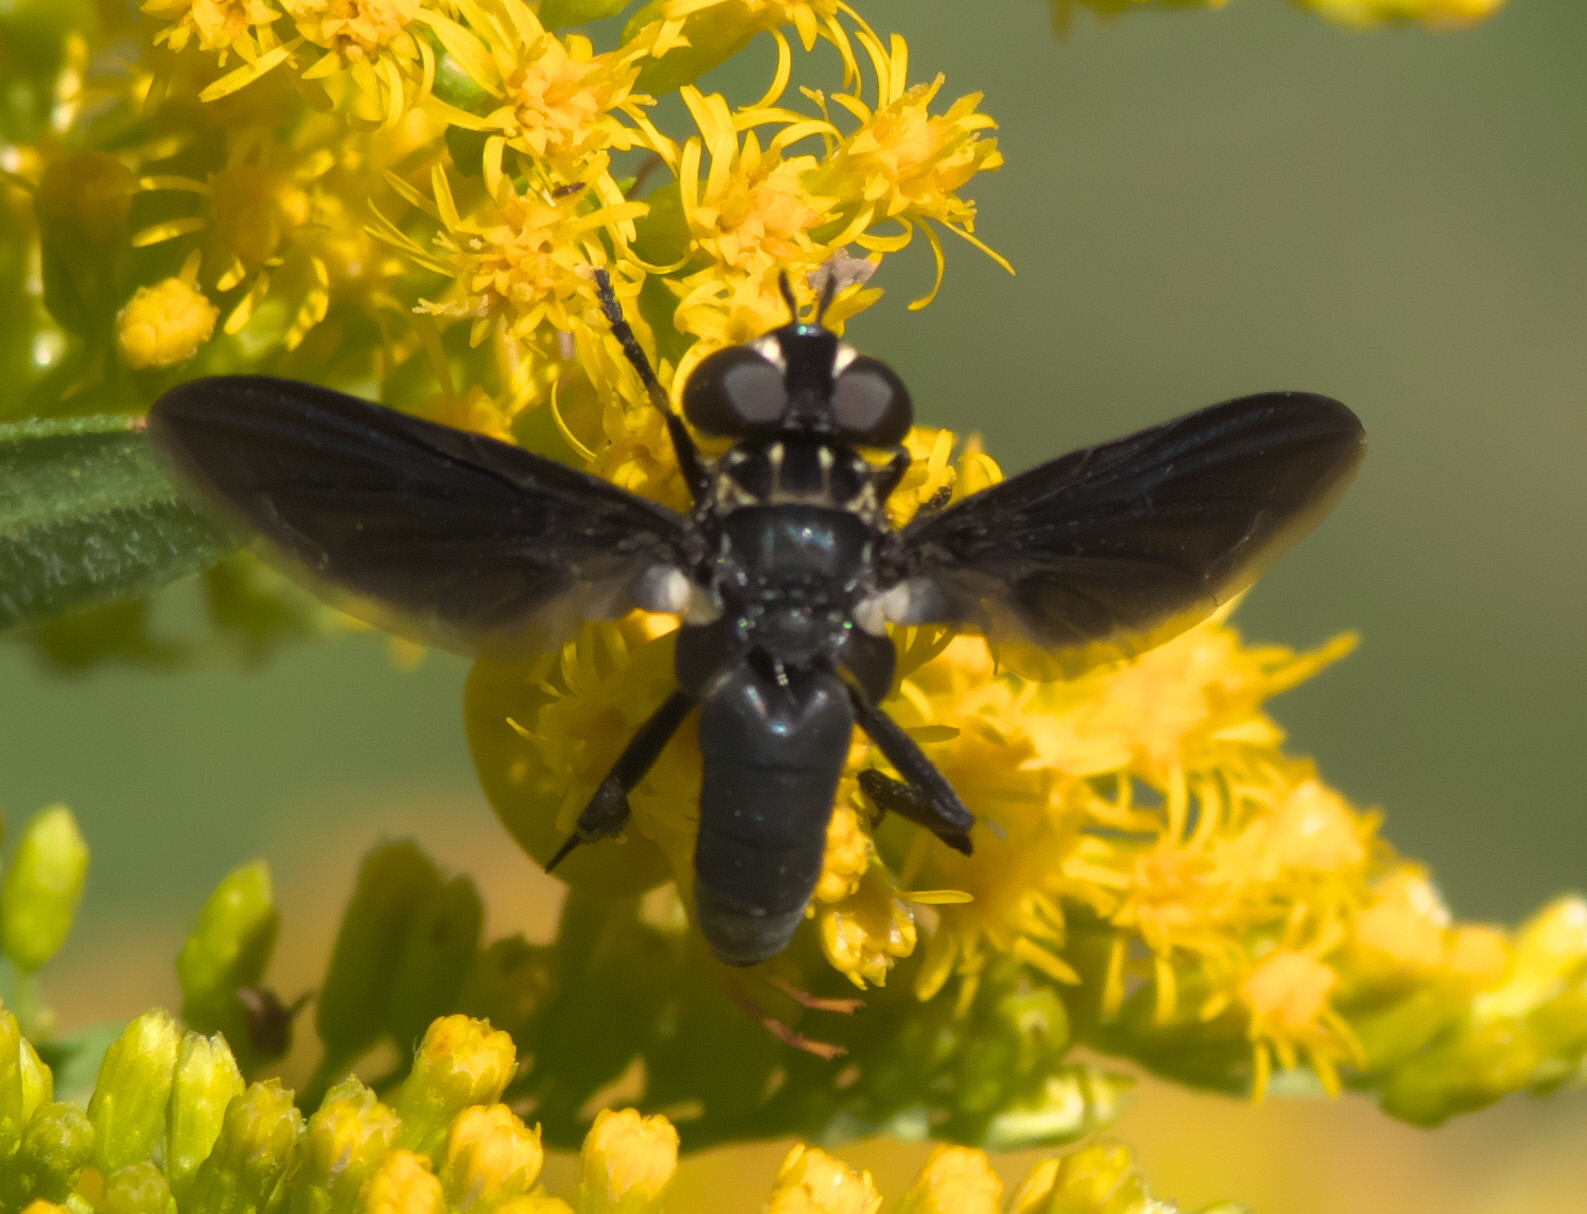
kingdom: Animalia
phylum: Arthropoda
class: Insecta
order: Diptera
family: Tachinidae
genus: Trichopoda
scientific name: Trichopoda lanipes
